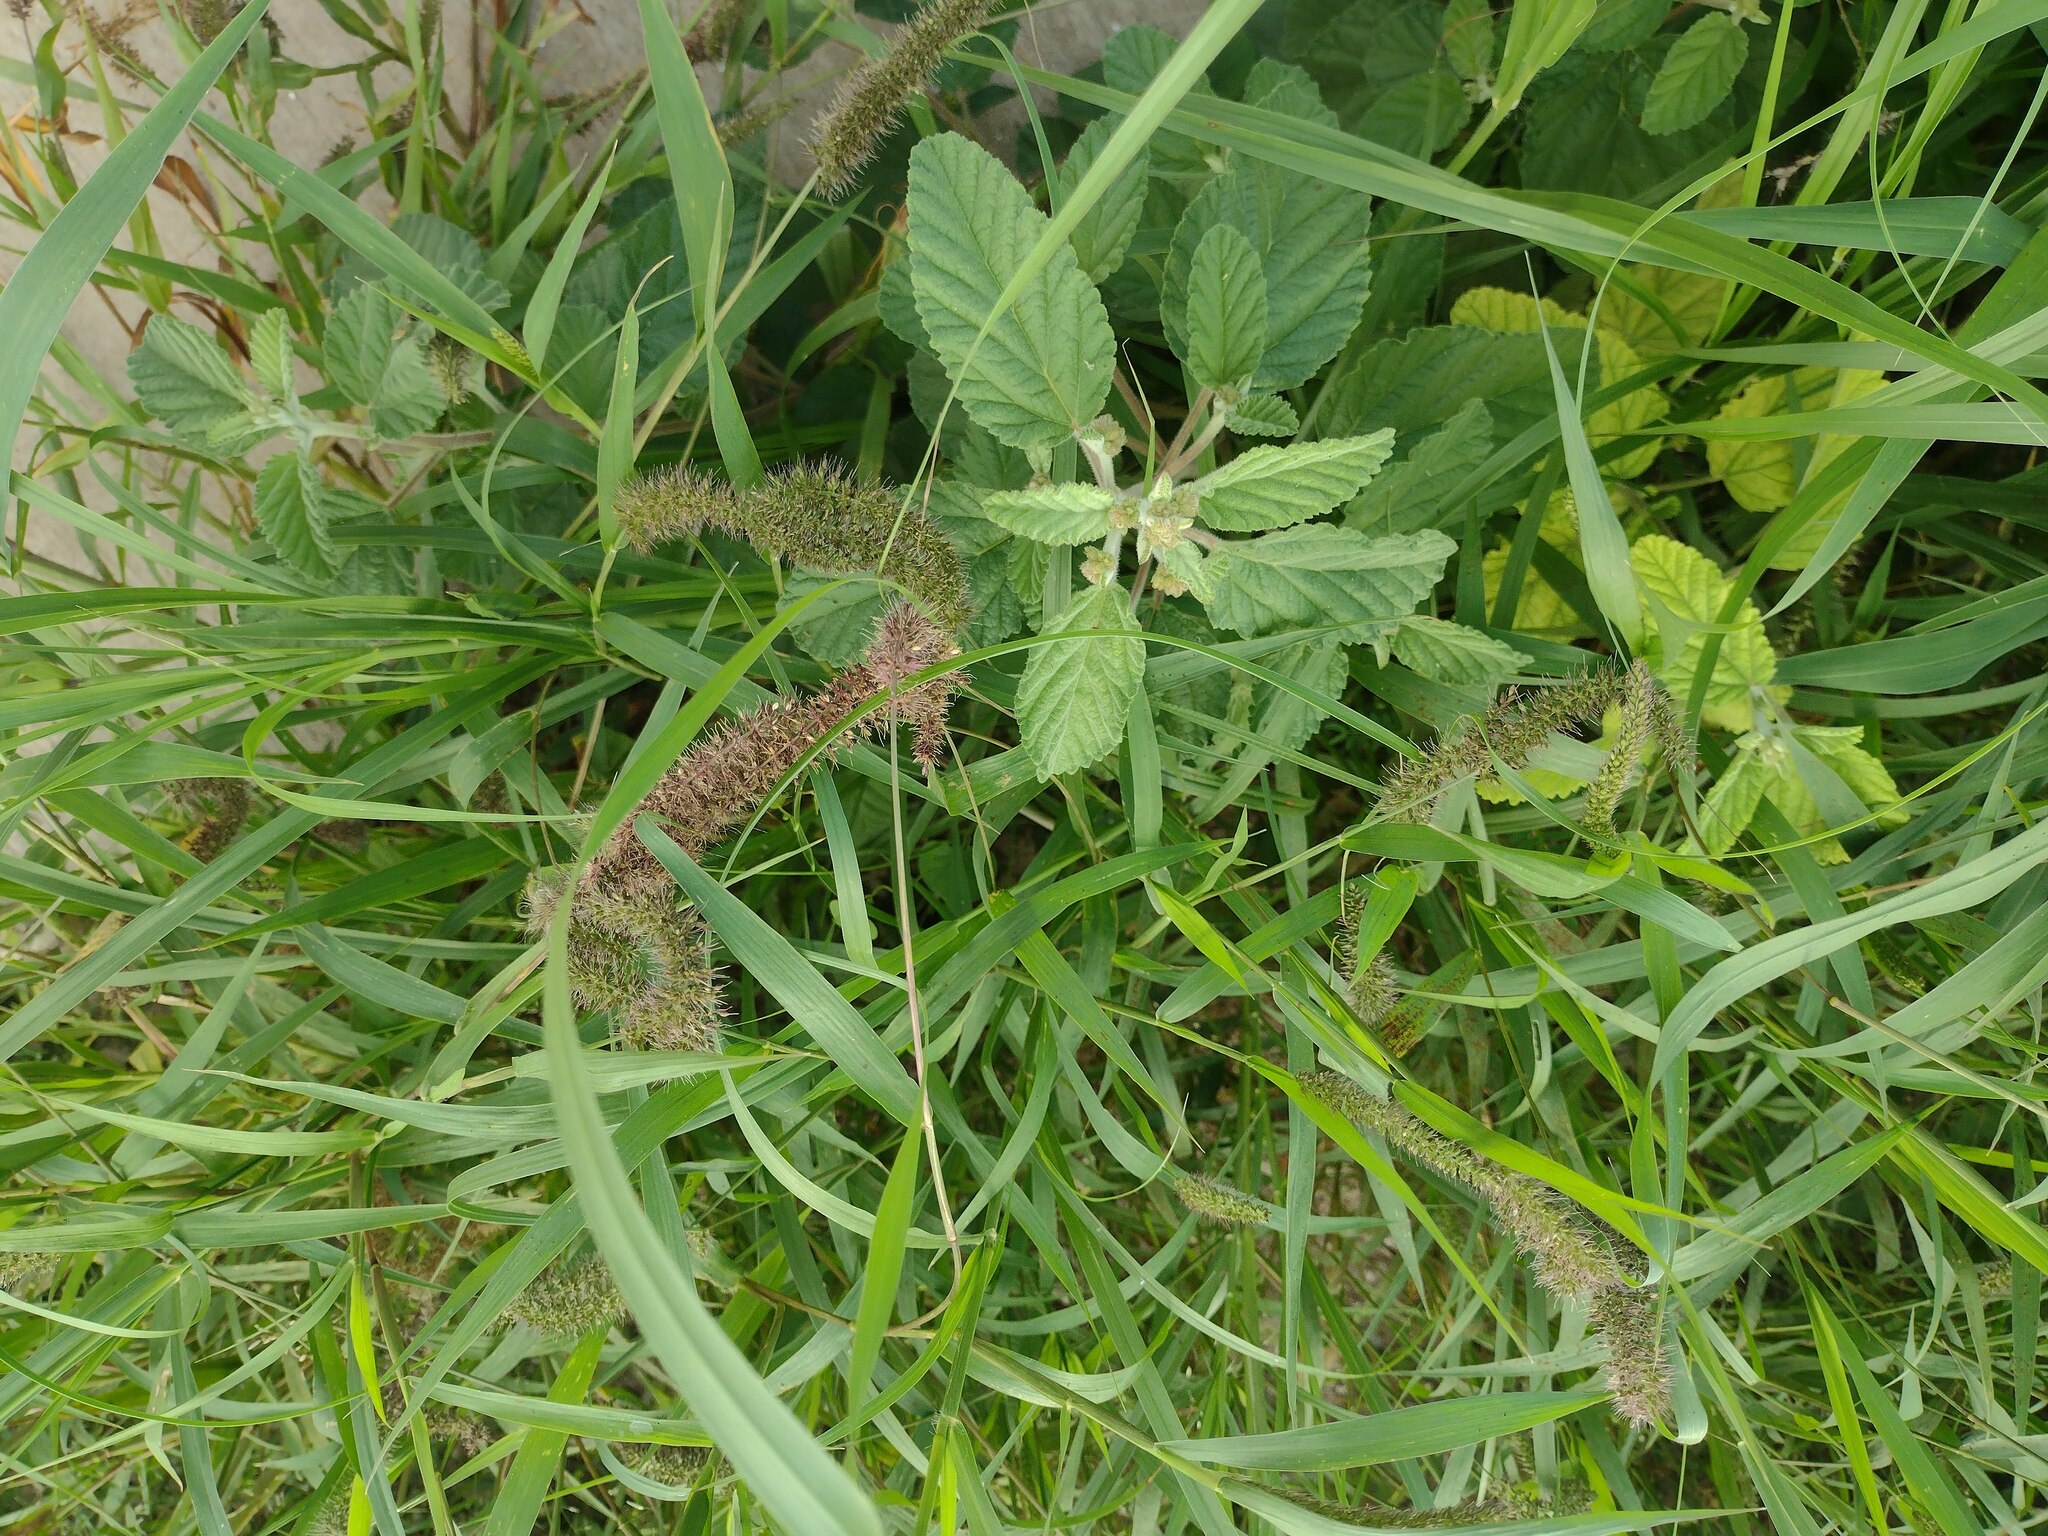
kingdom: Plantae
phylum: Tracheophyta
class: Liliopsida
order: Poales
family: Poaceae
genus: Setaria
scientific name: Setaria adhaerens
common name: Adherent bristle-grass
